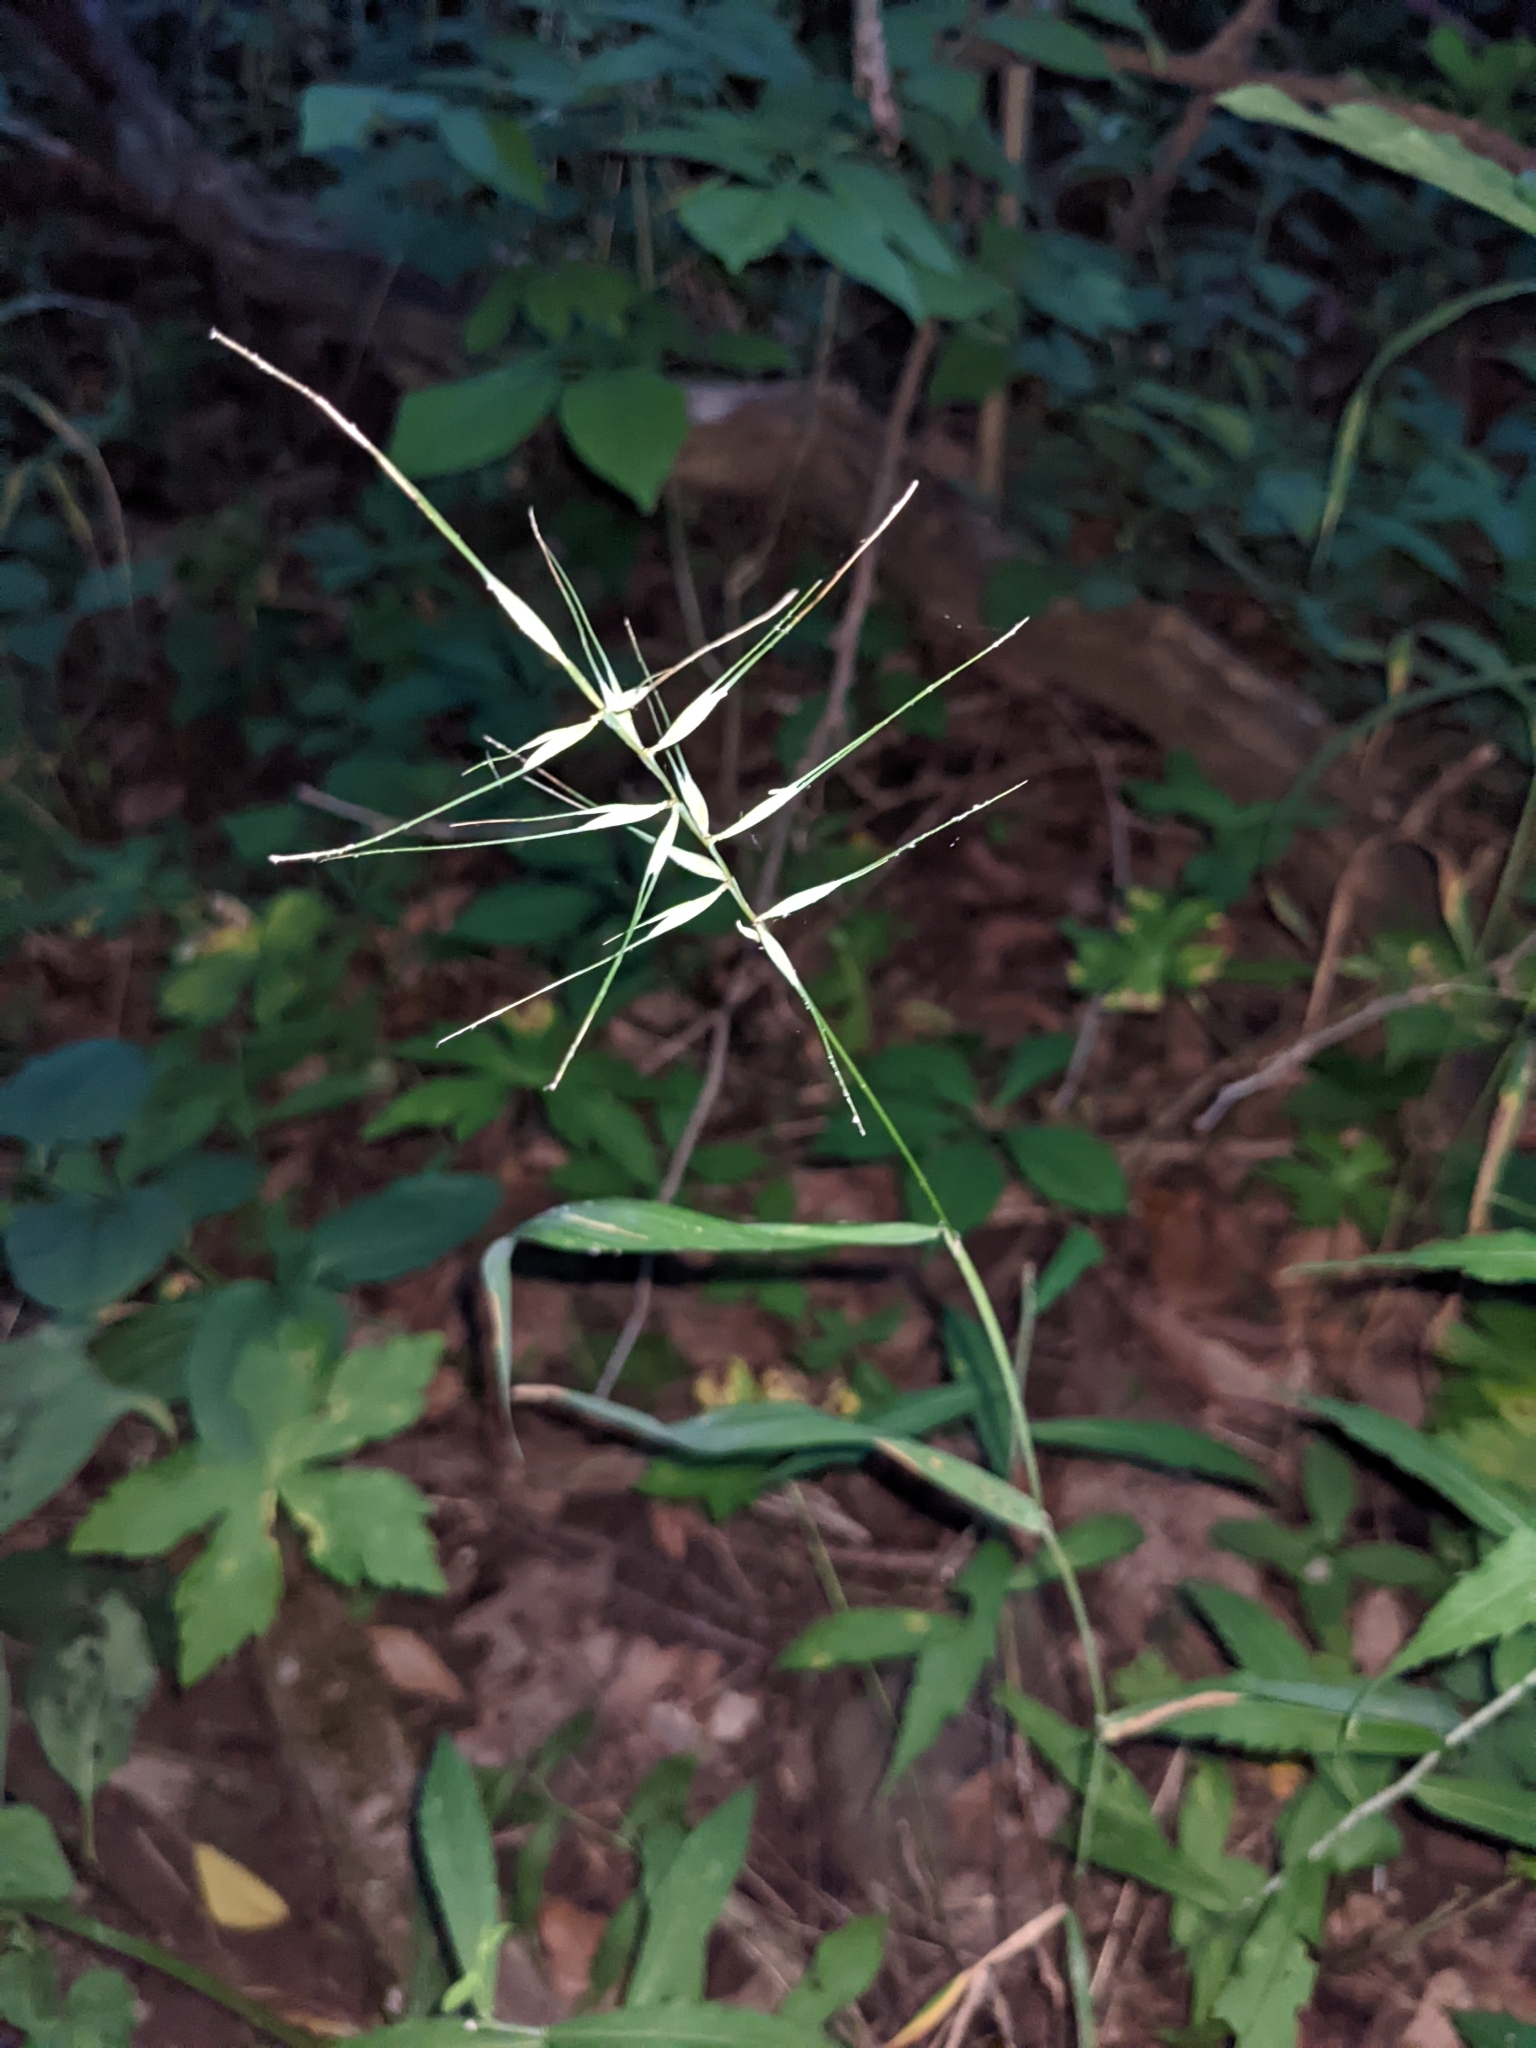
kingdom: Plantae
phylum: Tracheophyta
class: Liliopsida
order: Poales
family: Poaceae
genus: Elymus
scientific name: Elymus hystrix
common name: Bottlebrush grass
